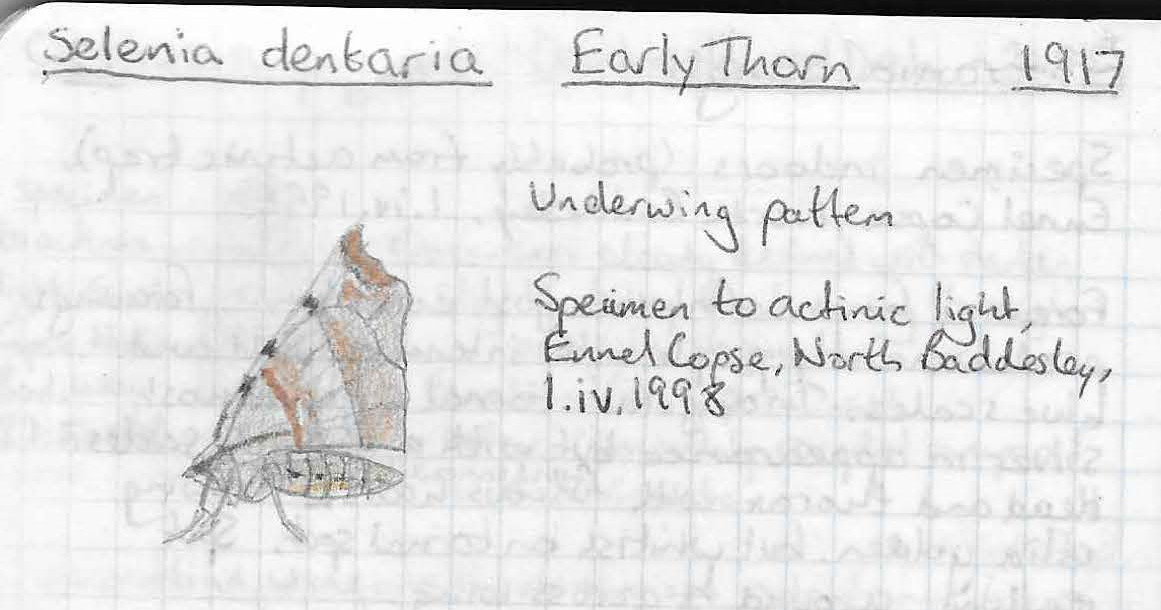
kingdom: Animalia
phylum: Arthropoda
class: Insecta
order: Lepidoptera
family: Geometridae
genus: Selenia
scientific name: Selenia dentaria
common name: Early thorn
